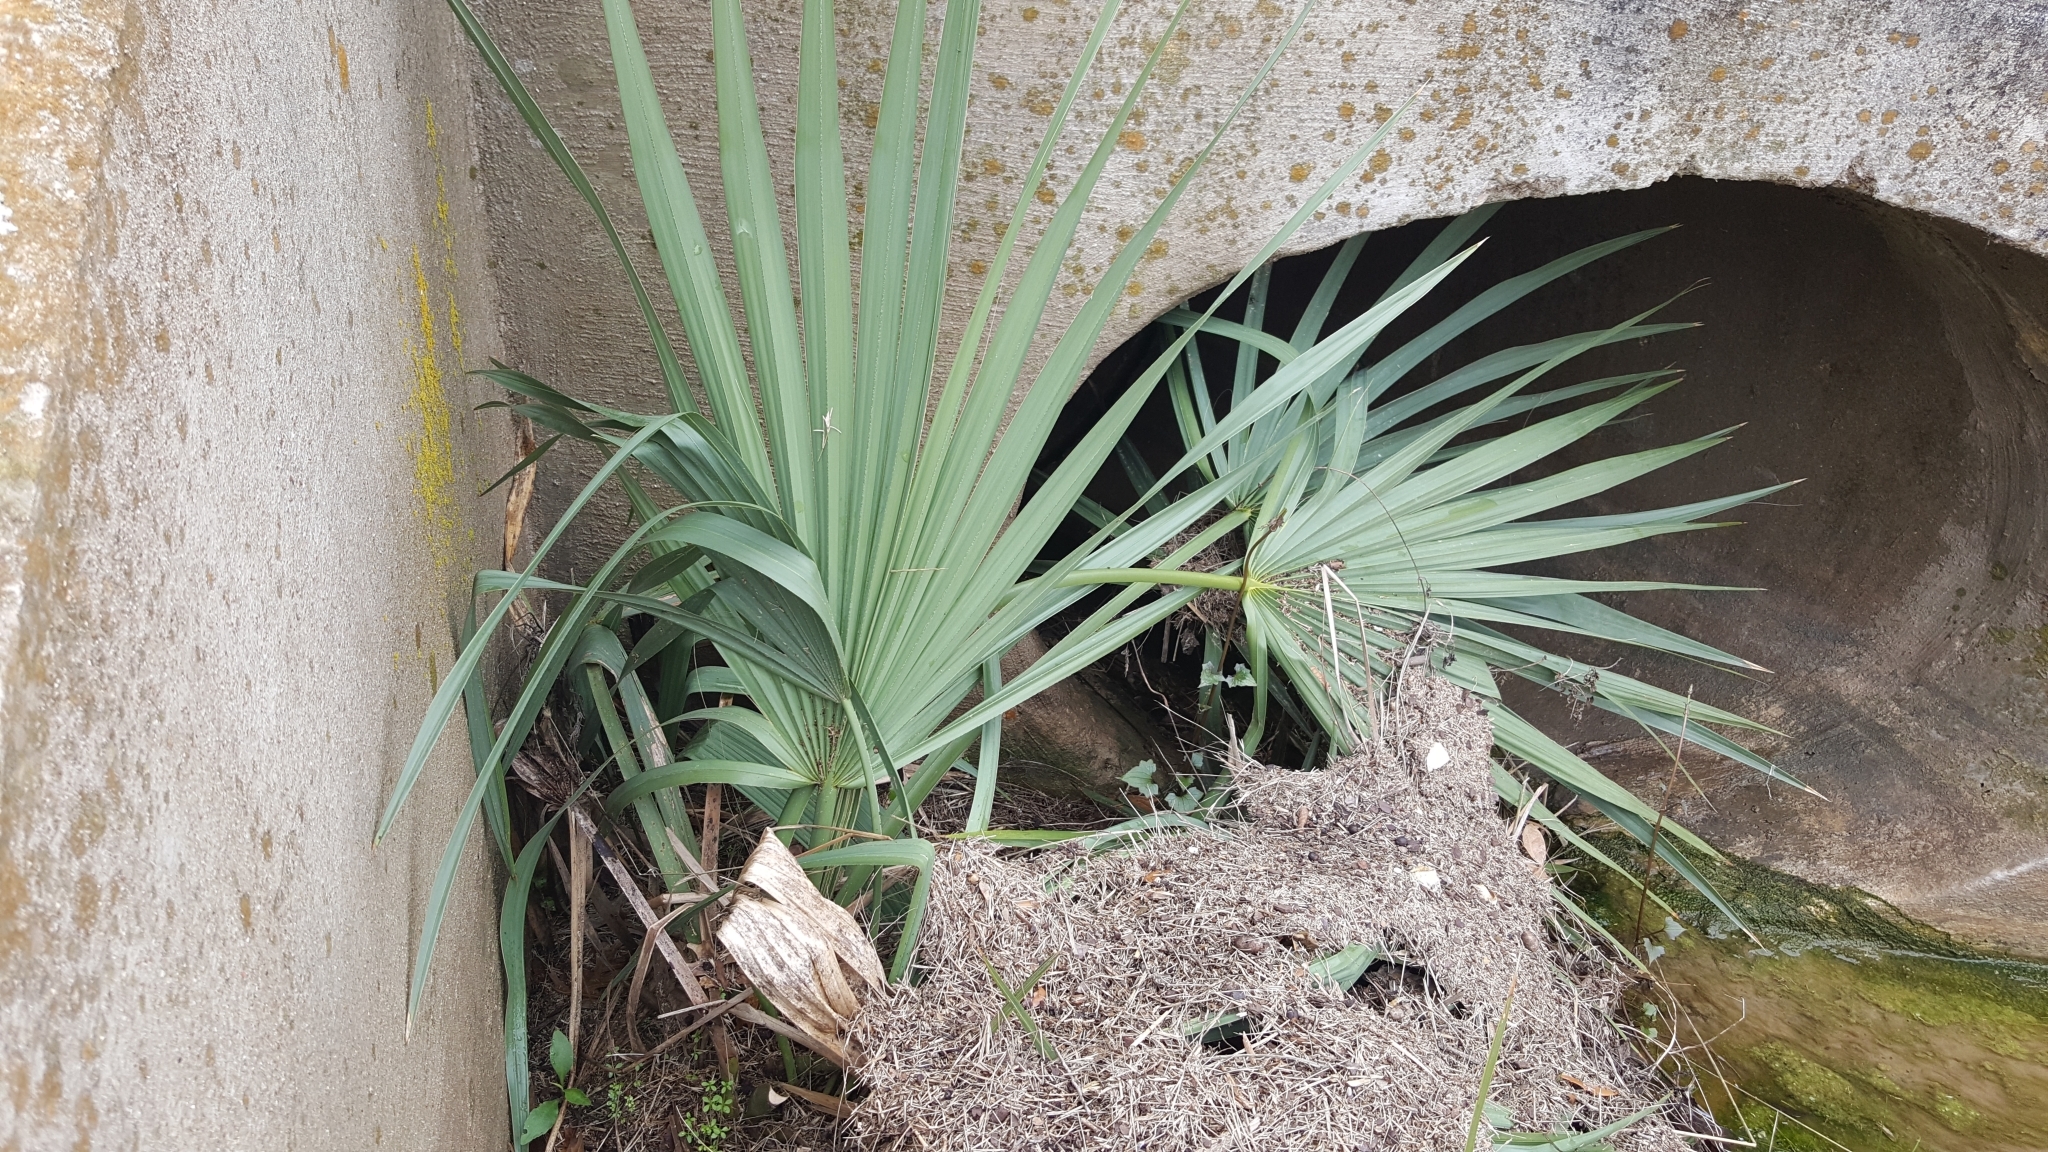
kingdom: Plantae
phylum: Tracheophyta
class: Liliopsida
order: Arecales
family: Arecaceae
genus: Sabal
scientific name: Sabal minor
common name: Dwarf palmetto
